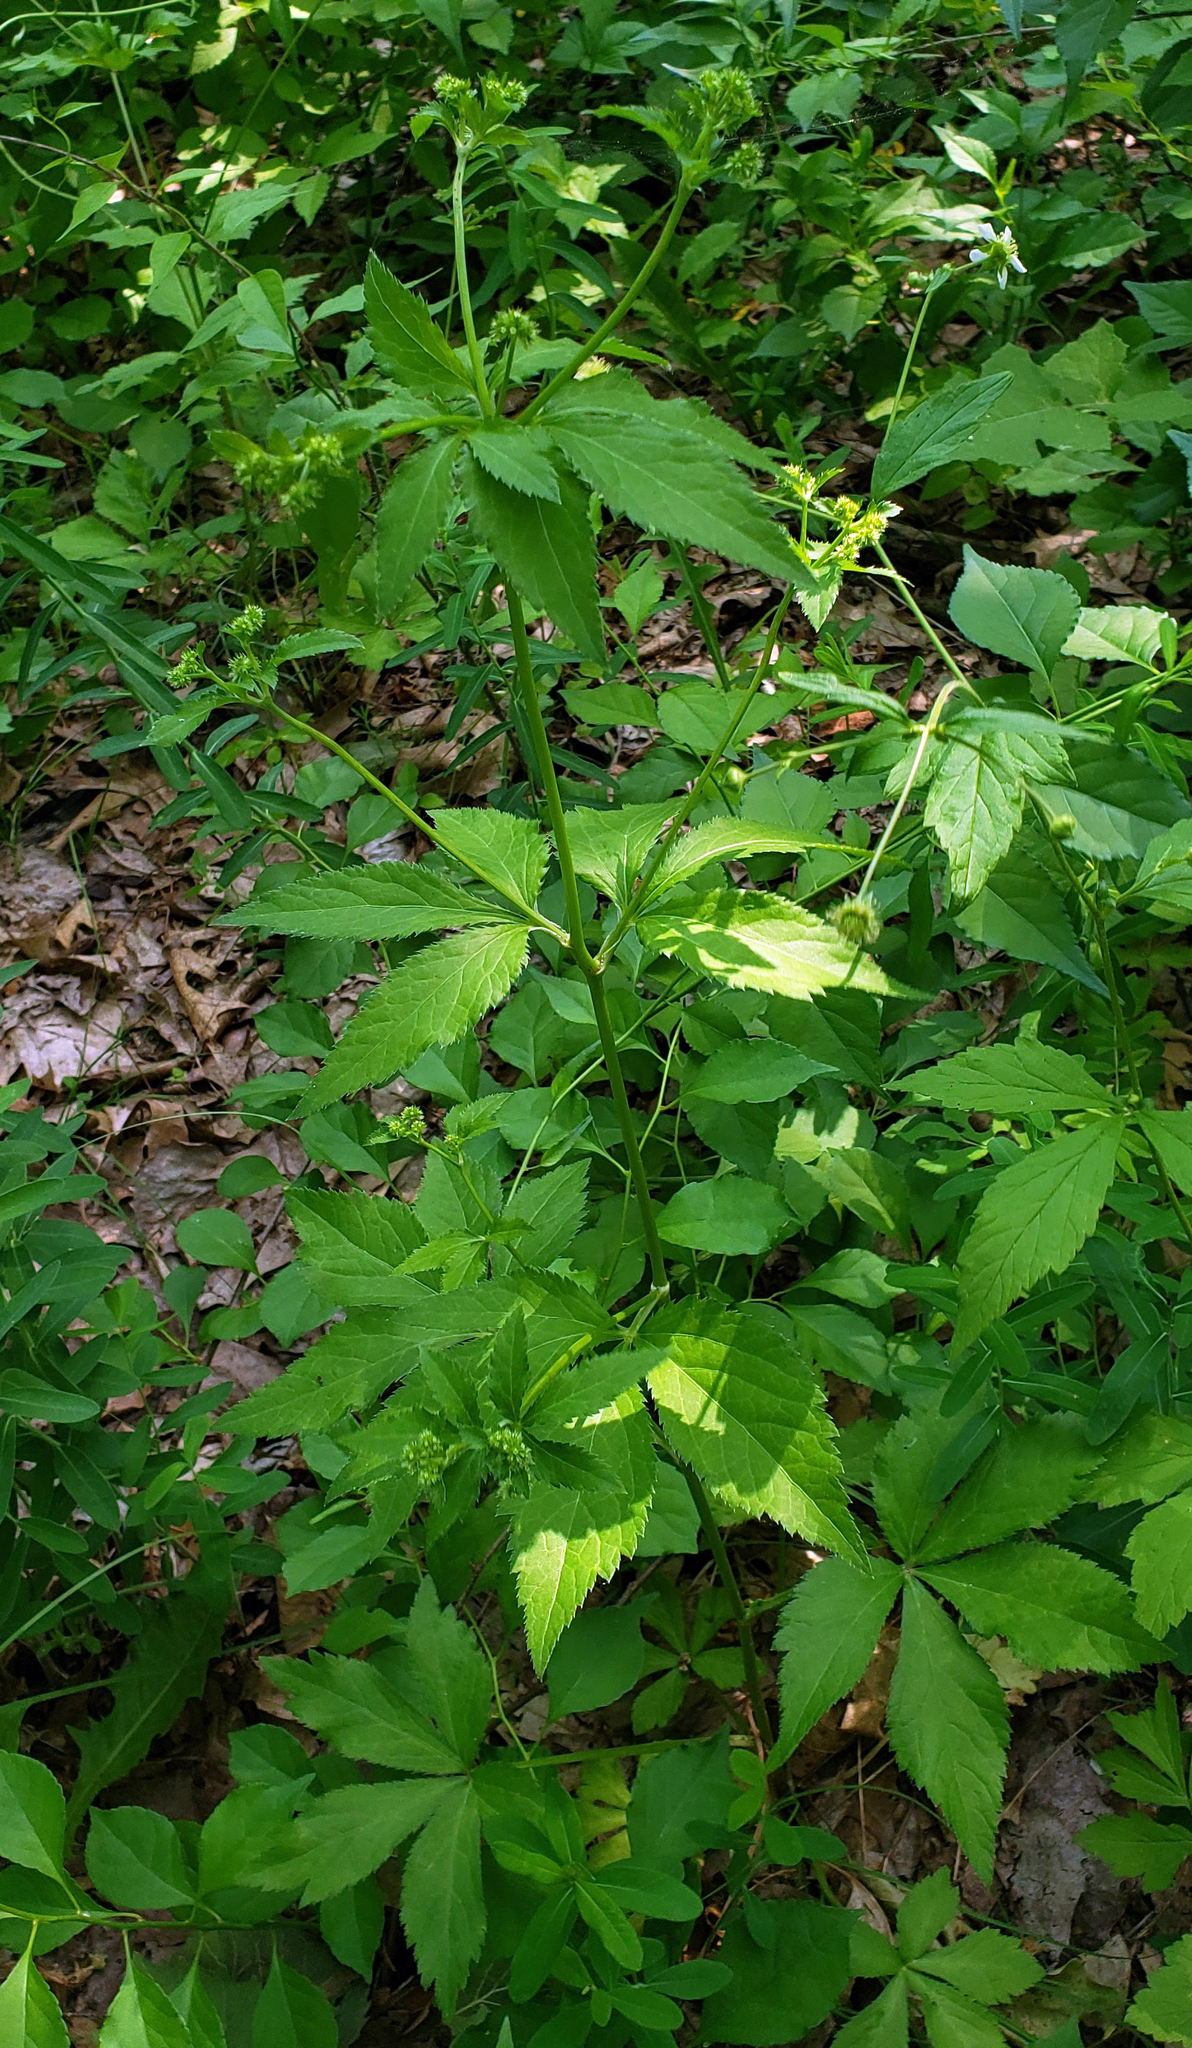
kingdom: Plantae
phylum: Tracheophyta
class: Magnoliopsida
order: Apiales
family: Apiaceae
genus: Sanicula
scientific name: Sanicula canadensis
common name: Canada sanicle
